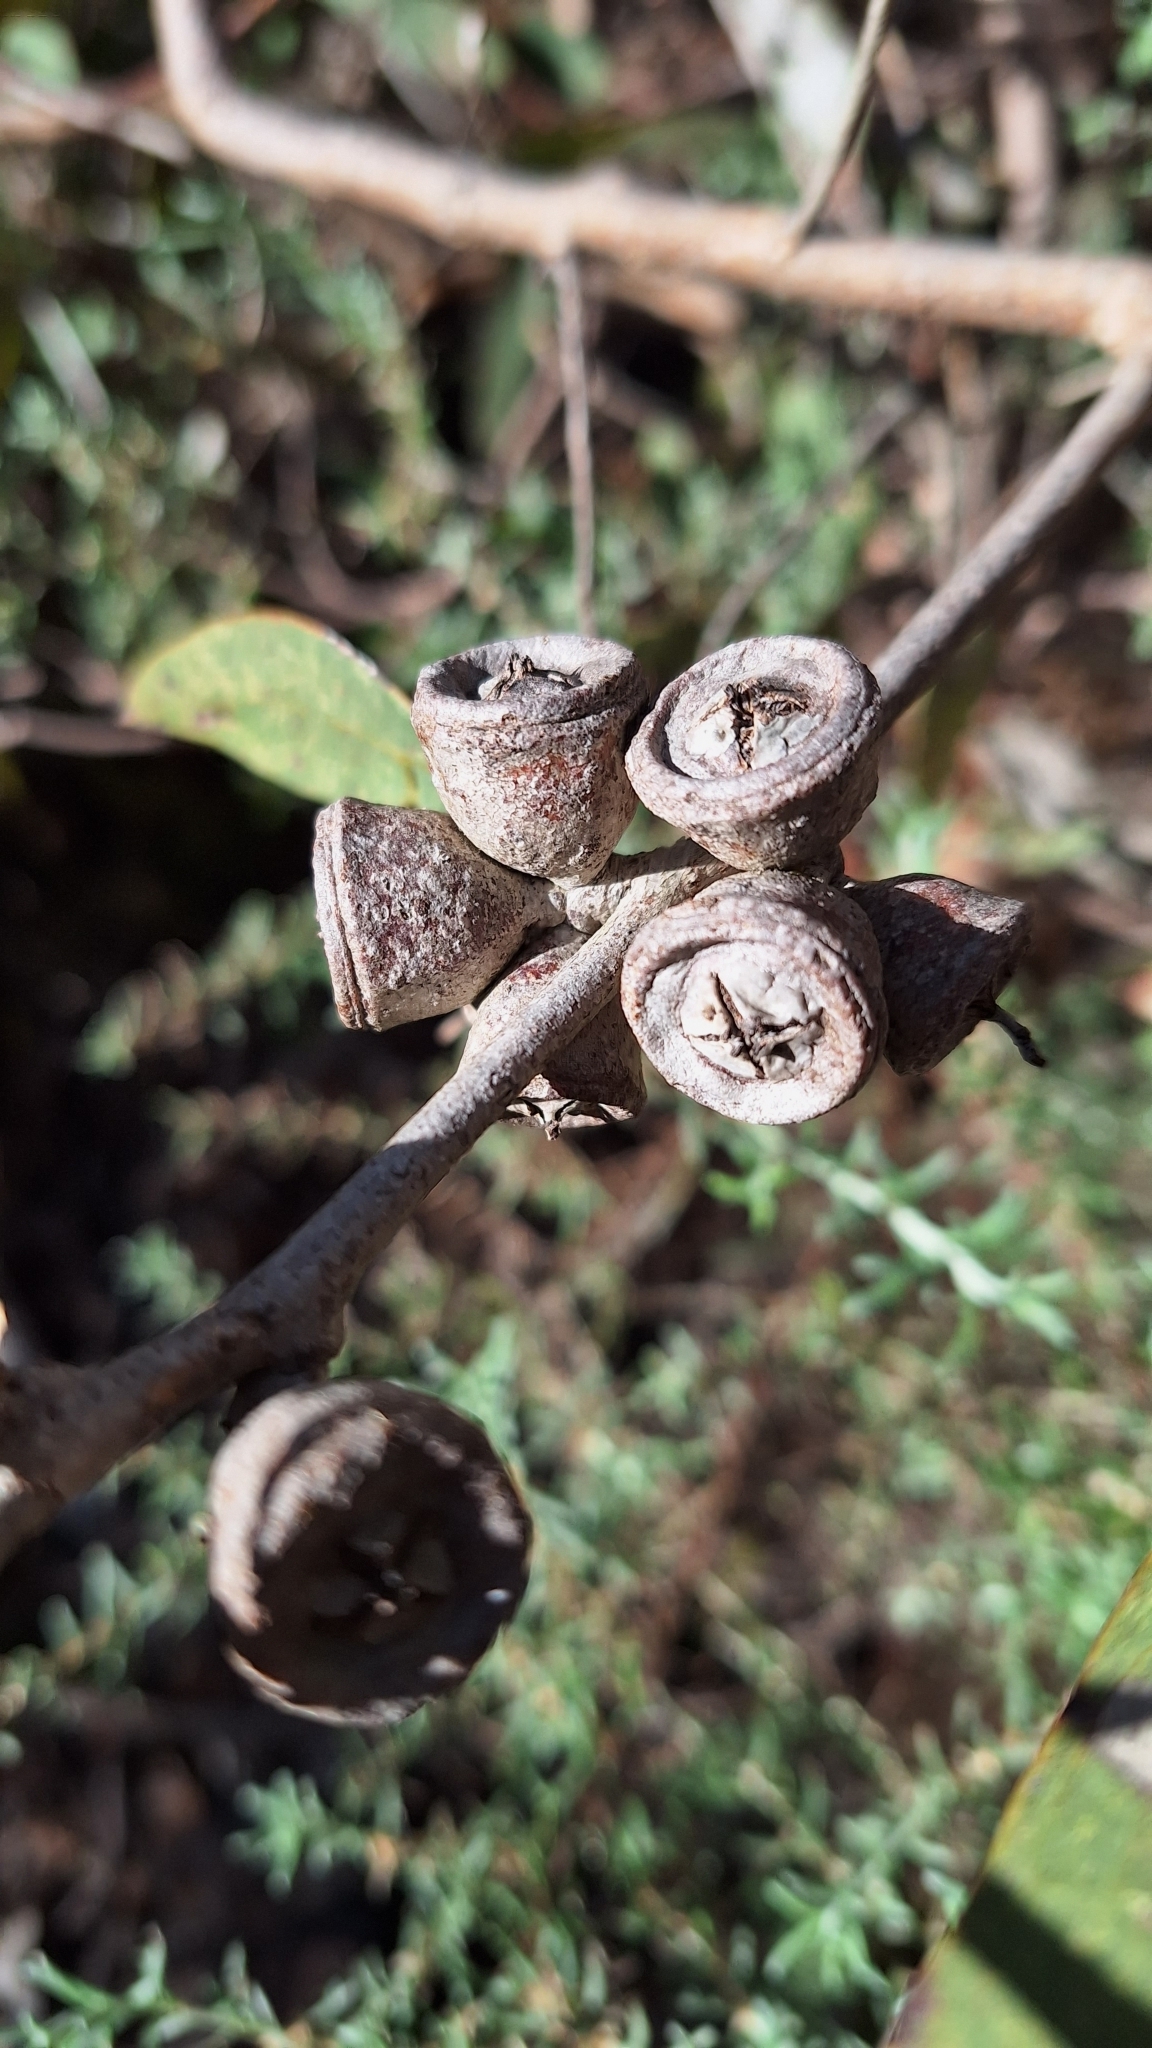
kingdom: Plantae
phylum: Tracheophyta
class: Magnoliopsida
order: Myrtales
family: Myrtaceae
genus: Eucalyptus
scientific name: Eucalyptus cosmophylla
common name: Bog-gum
